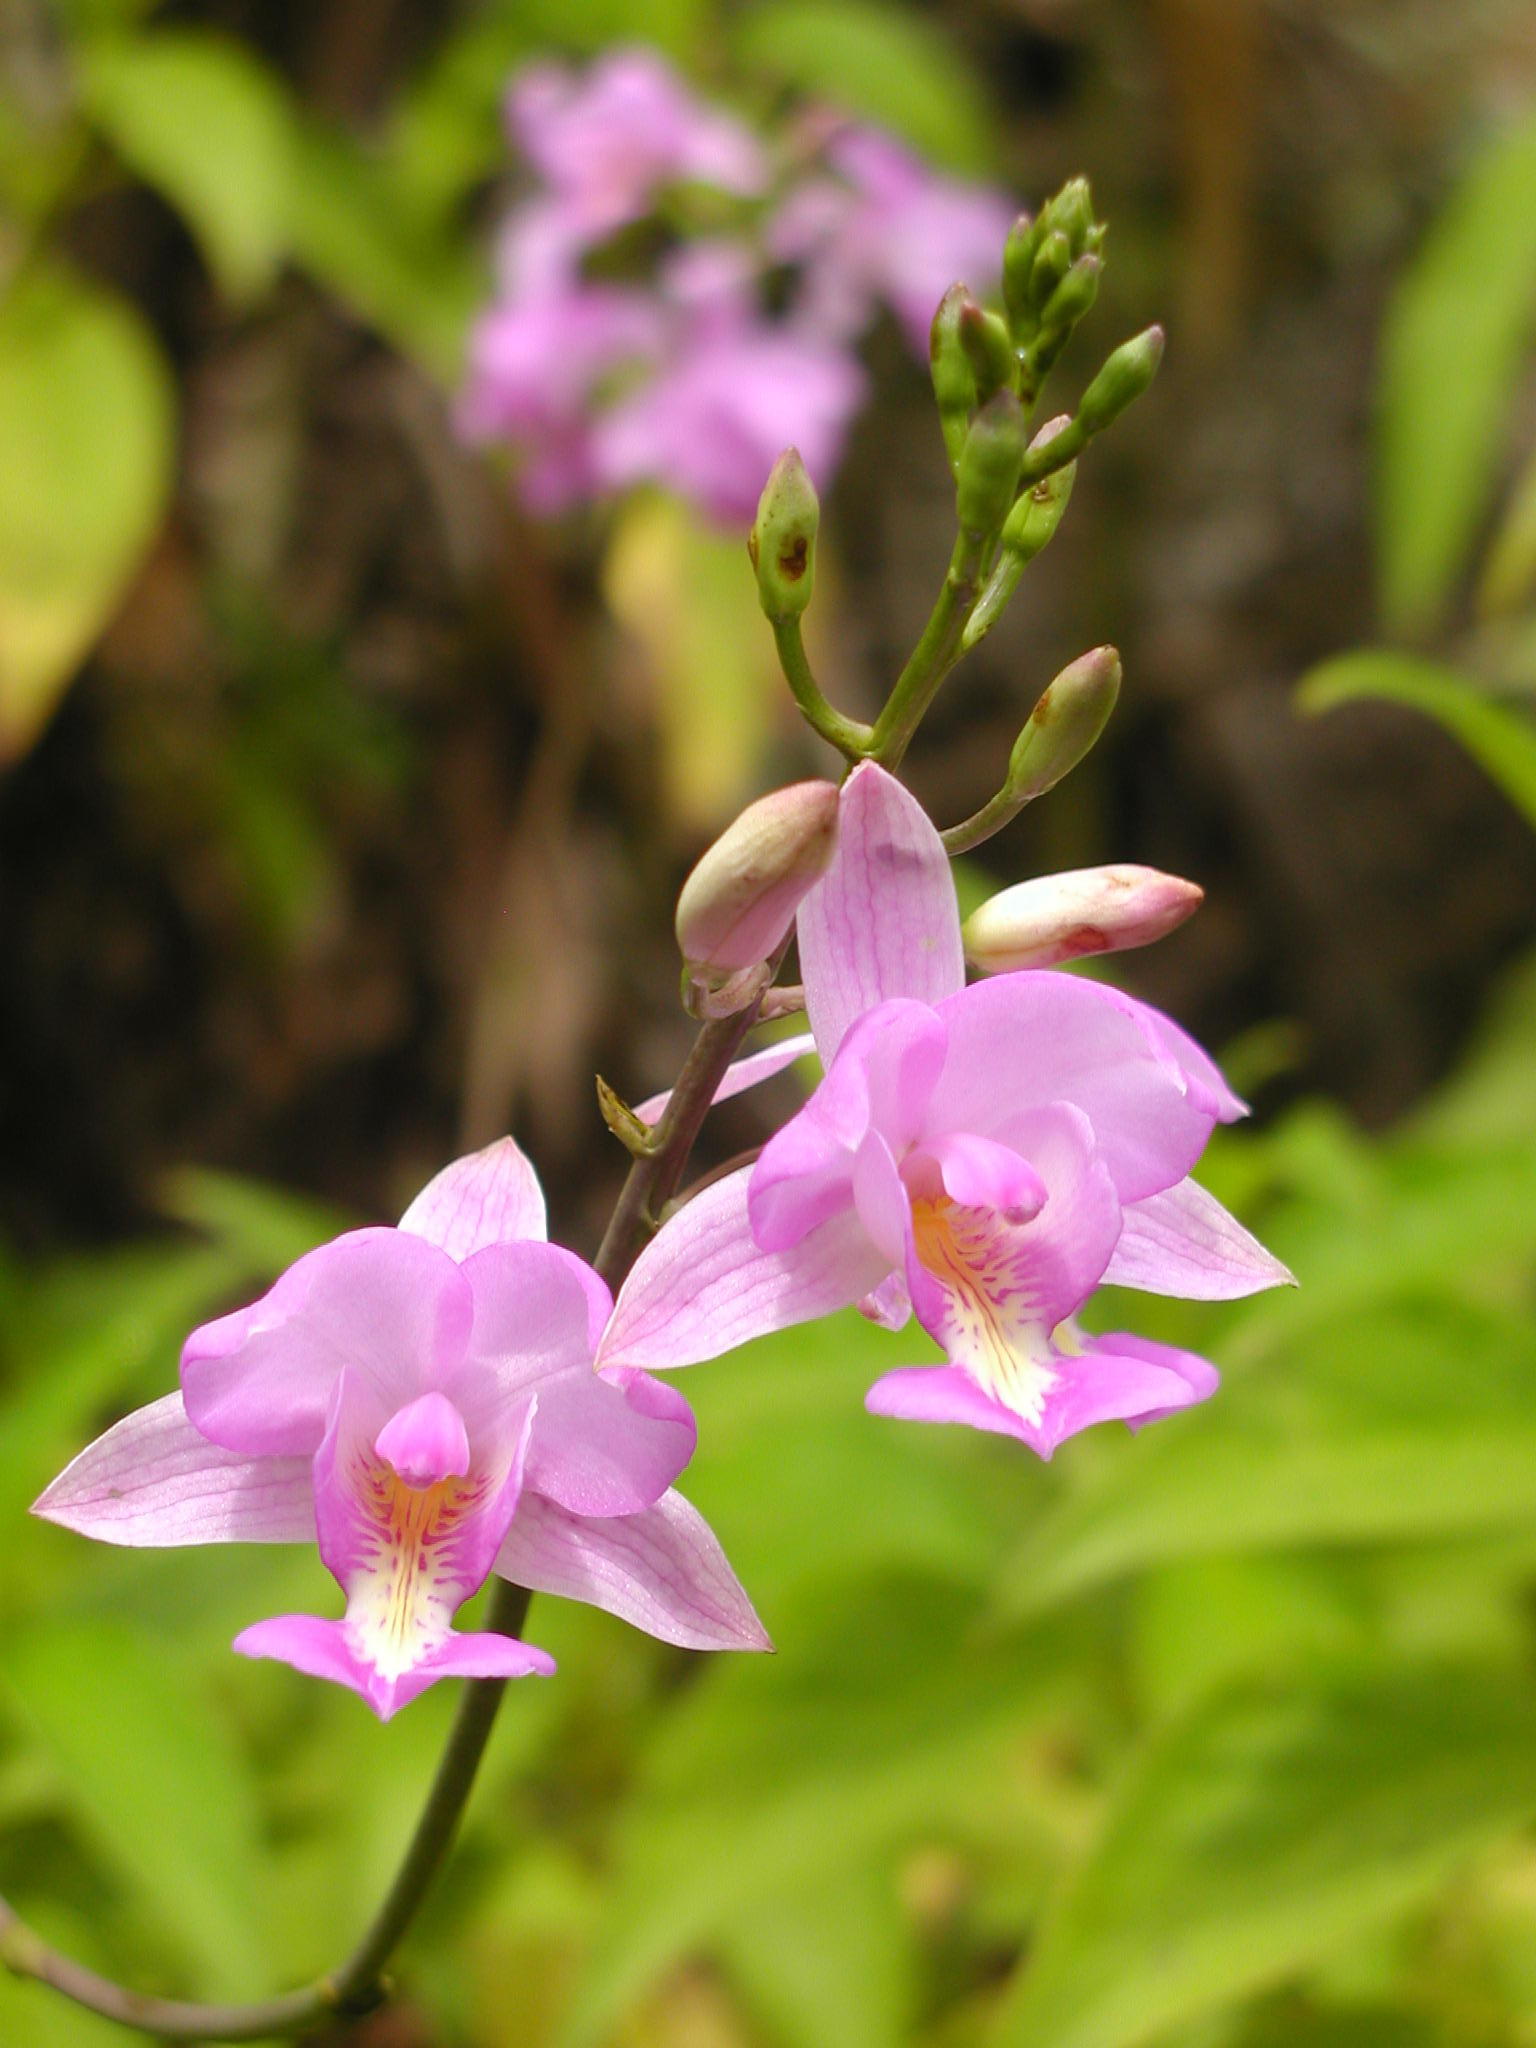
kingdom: Plantae
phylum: Tracheophyta
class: Liliopsida
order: Asparagales
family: Orchidaceae
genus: Bletia
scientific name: Bletia catenulata
